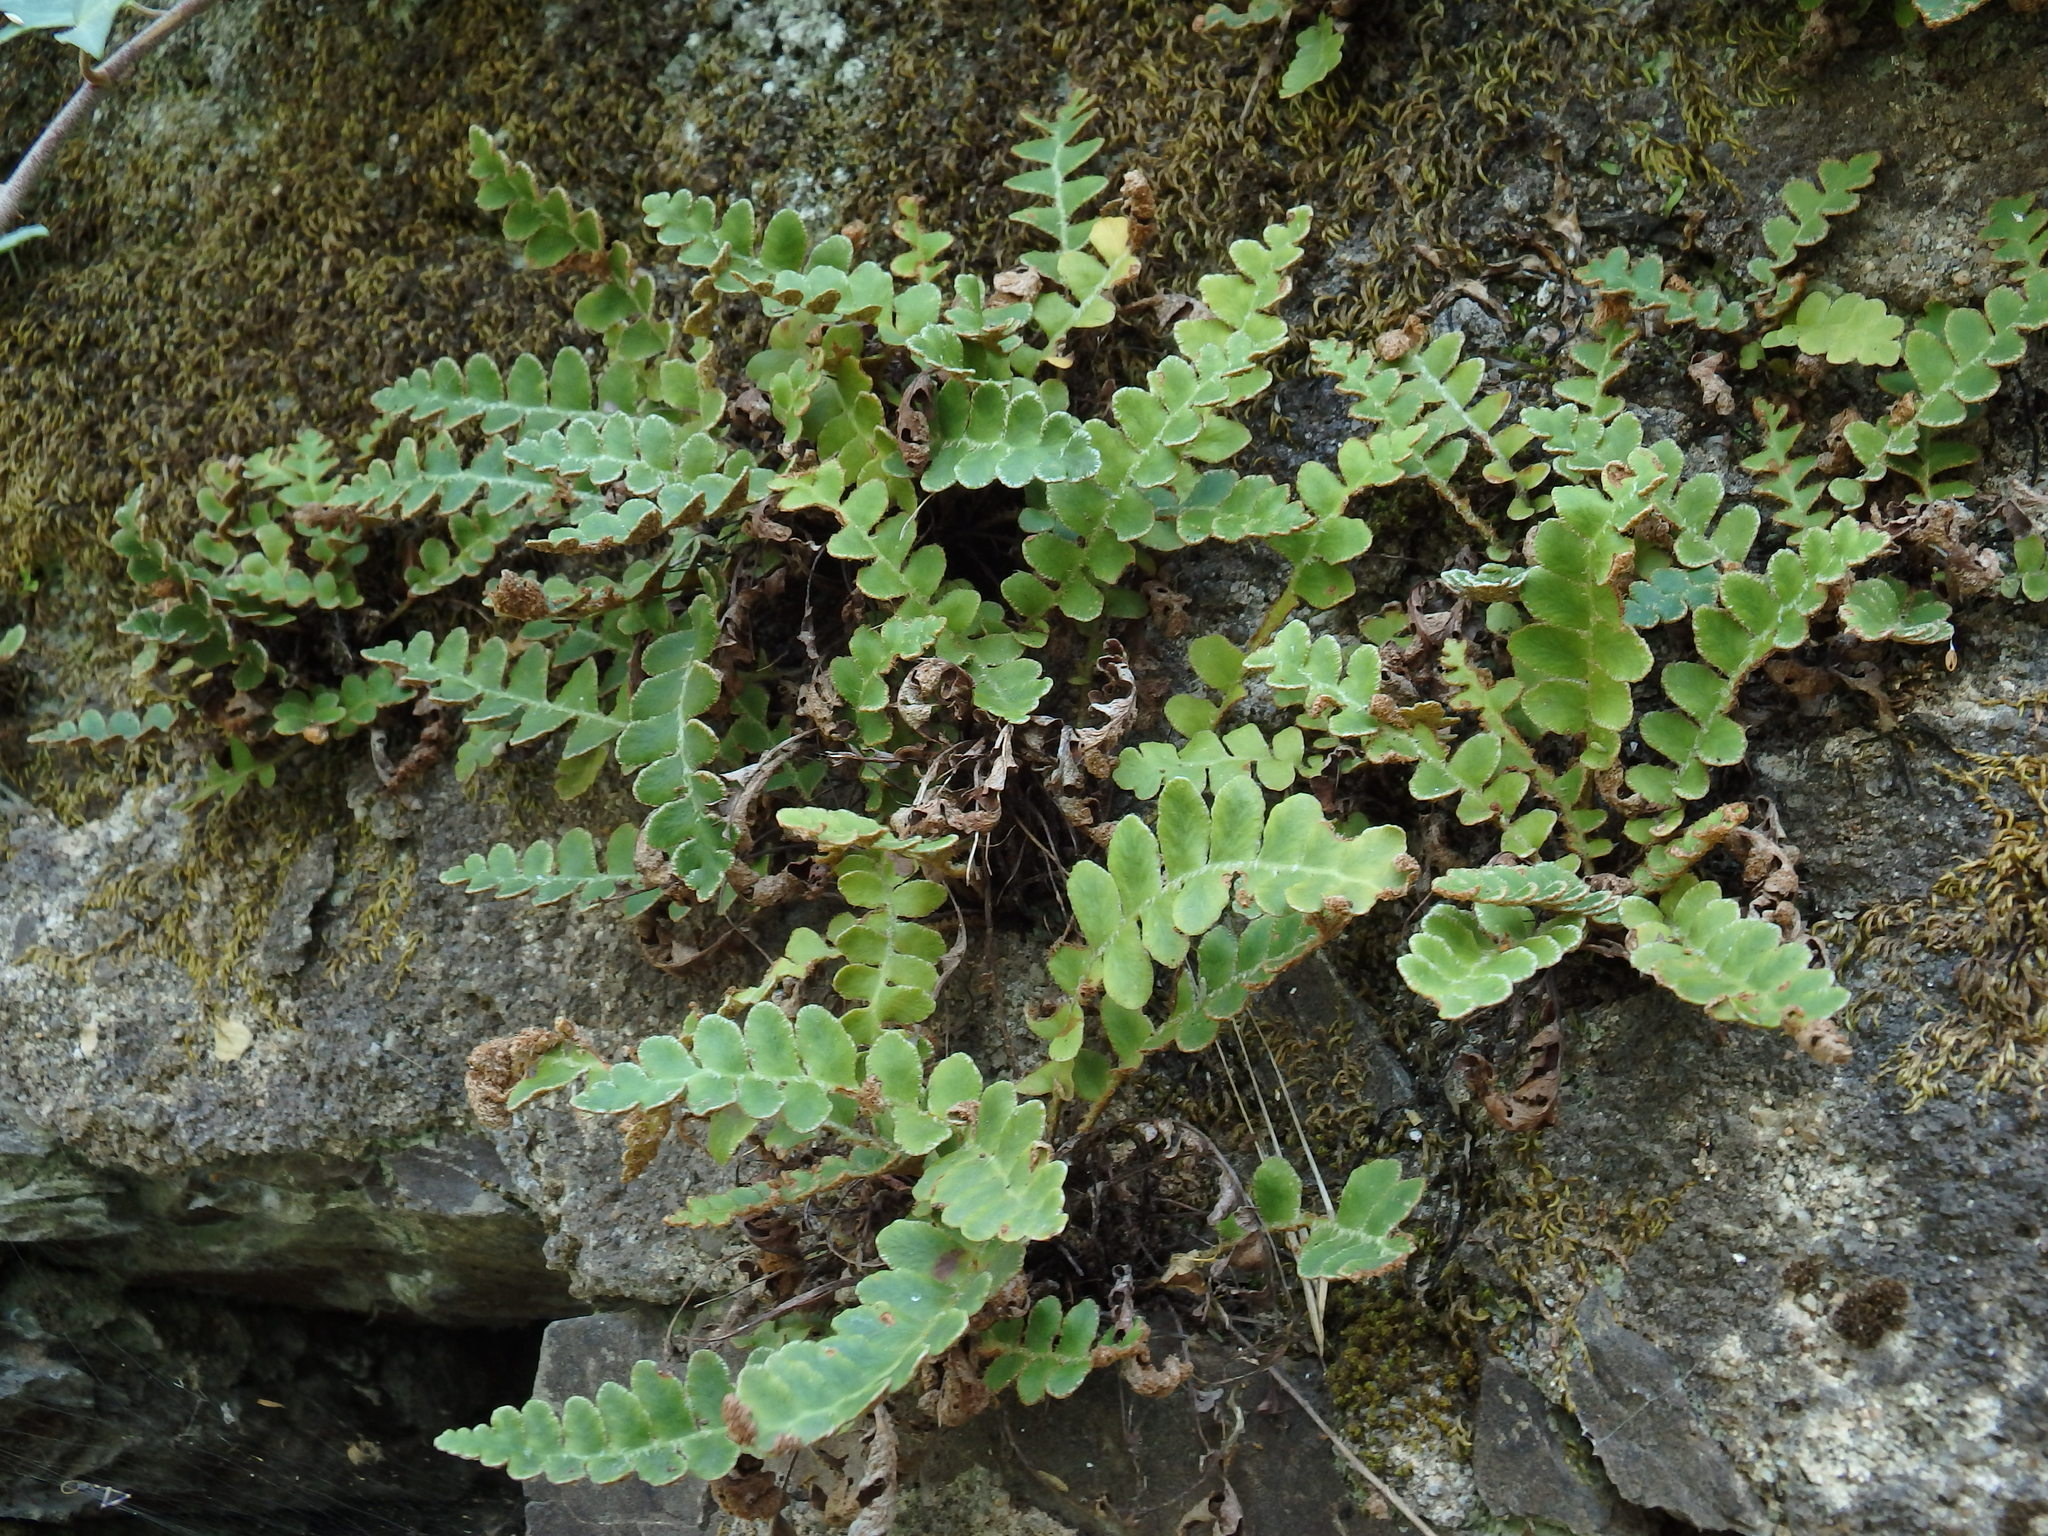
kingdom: Plantae
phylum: Tracheophyta
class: Polypodiopsida
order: Polypodiales
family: Aspleniaceae
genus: Asplenium
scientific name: Asplenium ceterach
